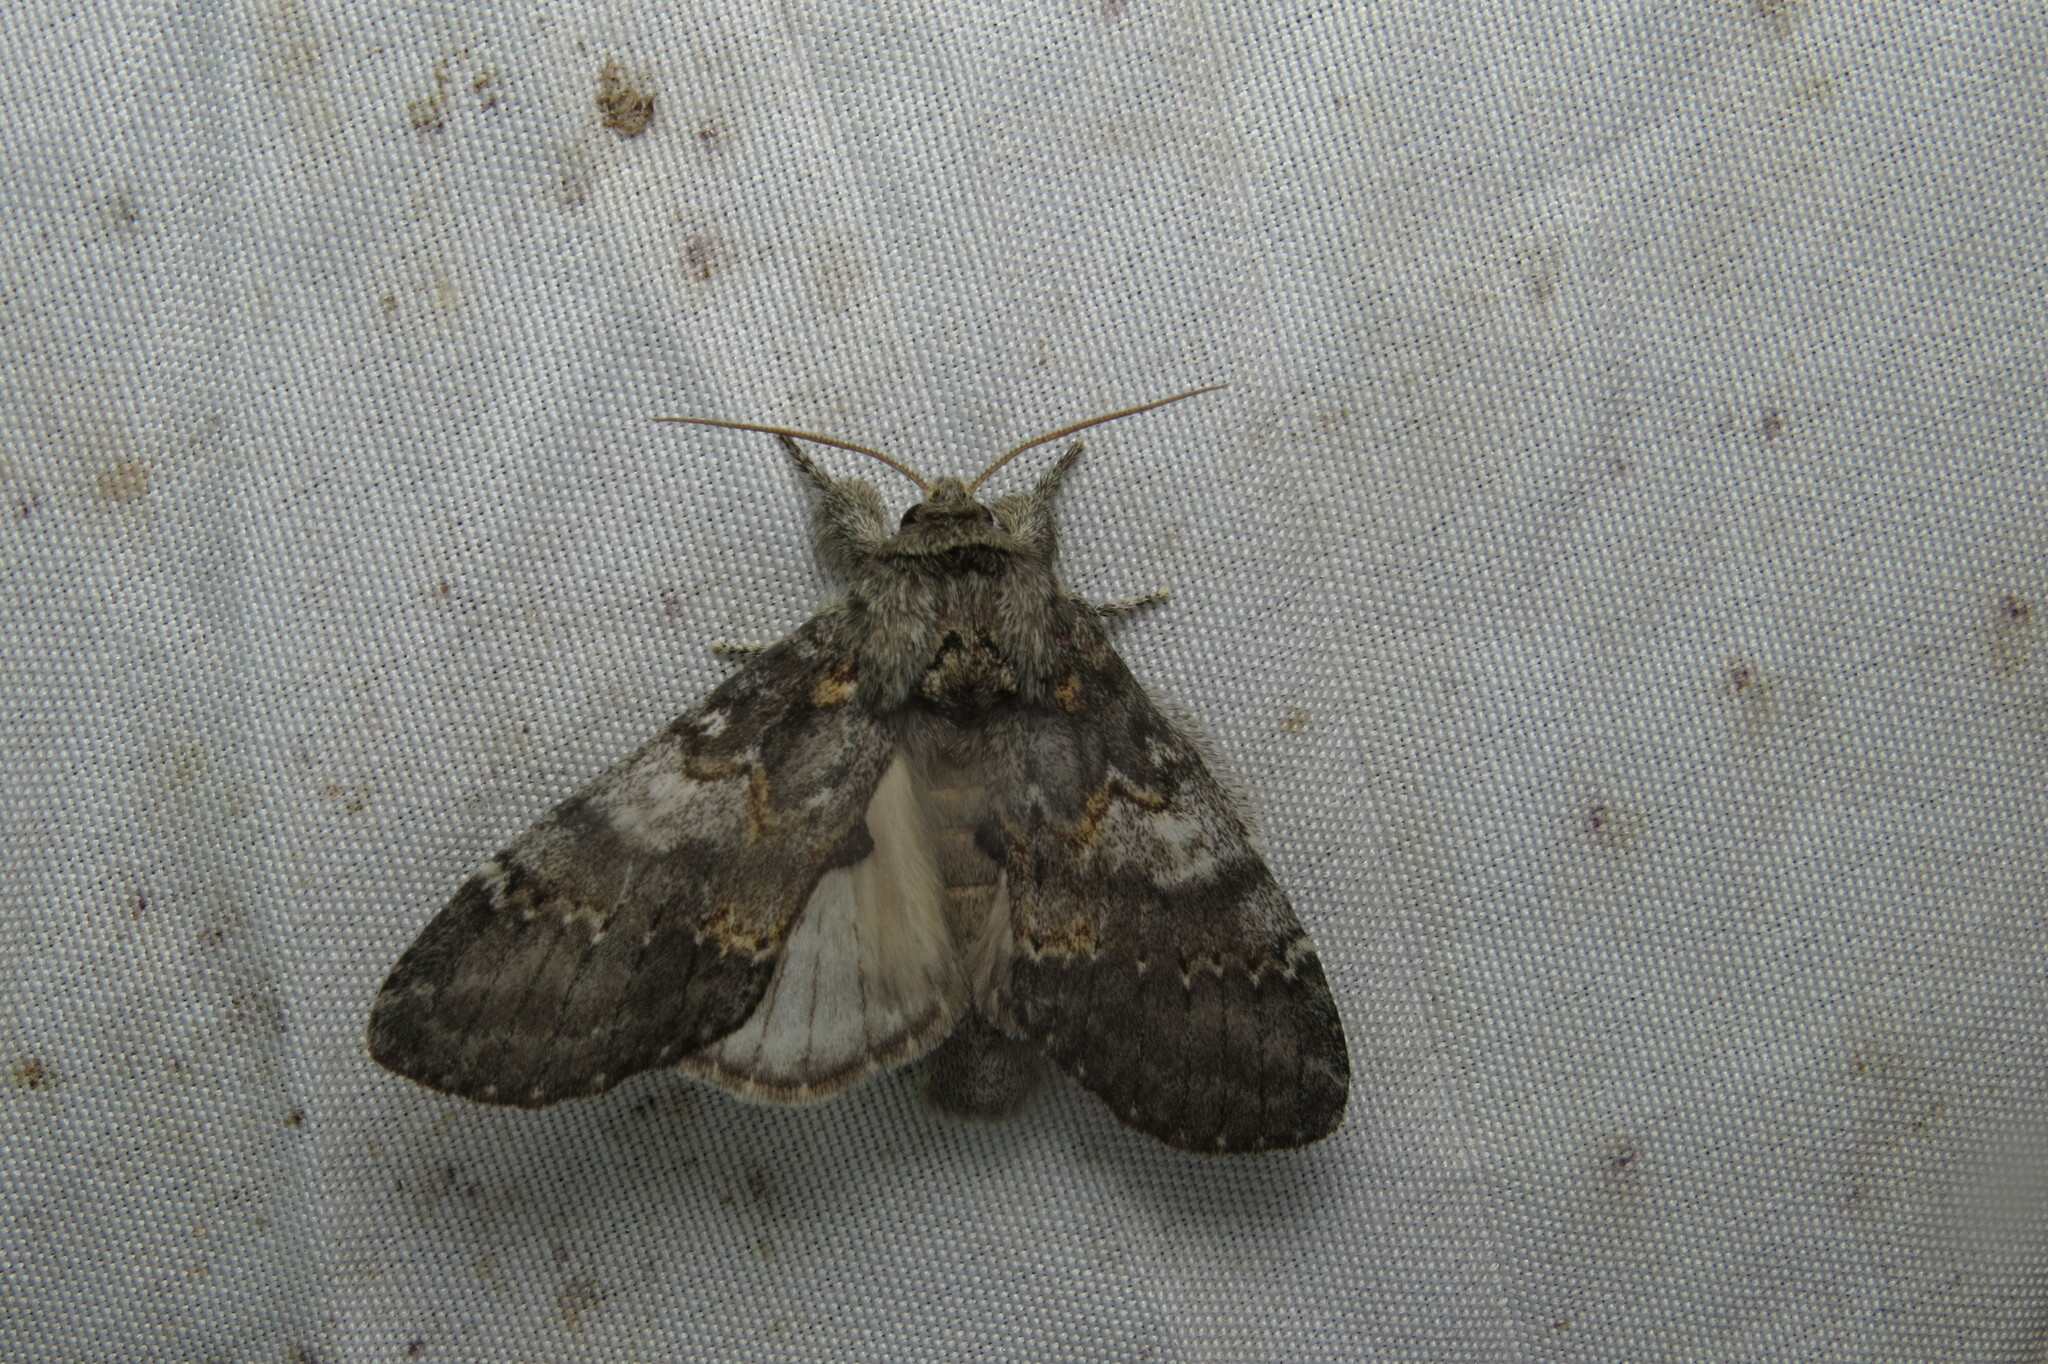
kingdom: Animalia
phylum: Arthropoda
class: Insecta
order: Lepidoptera
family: Notodontidae
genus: Peridea
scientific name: Peridea angulosa
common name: Angulose prominent
